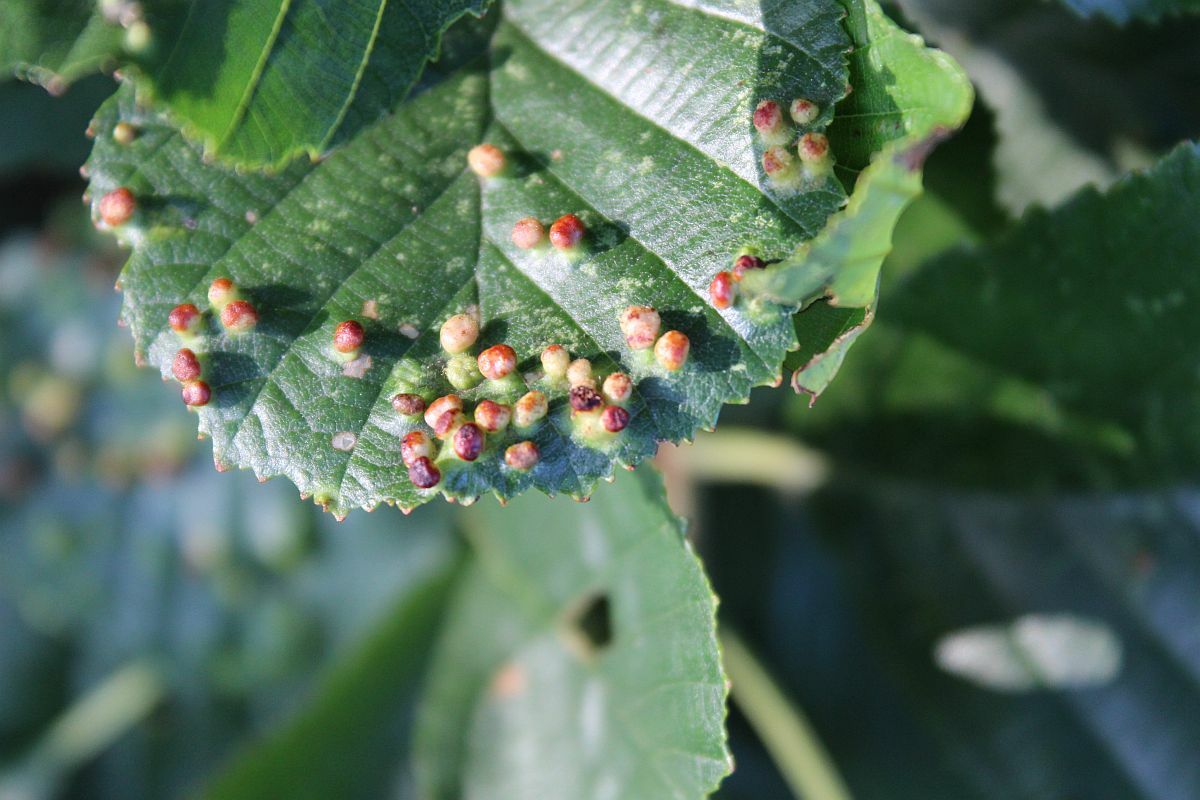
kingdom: Animalia
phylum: Arthropoda
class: Arachnida
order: Trombidiformes
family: Eriophyidae
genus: Eriophyes
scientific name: Eriophyes laevis
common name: Alder leaf gall mite
